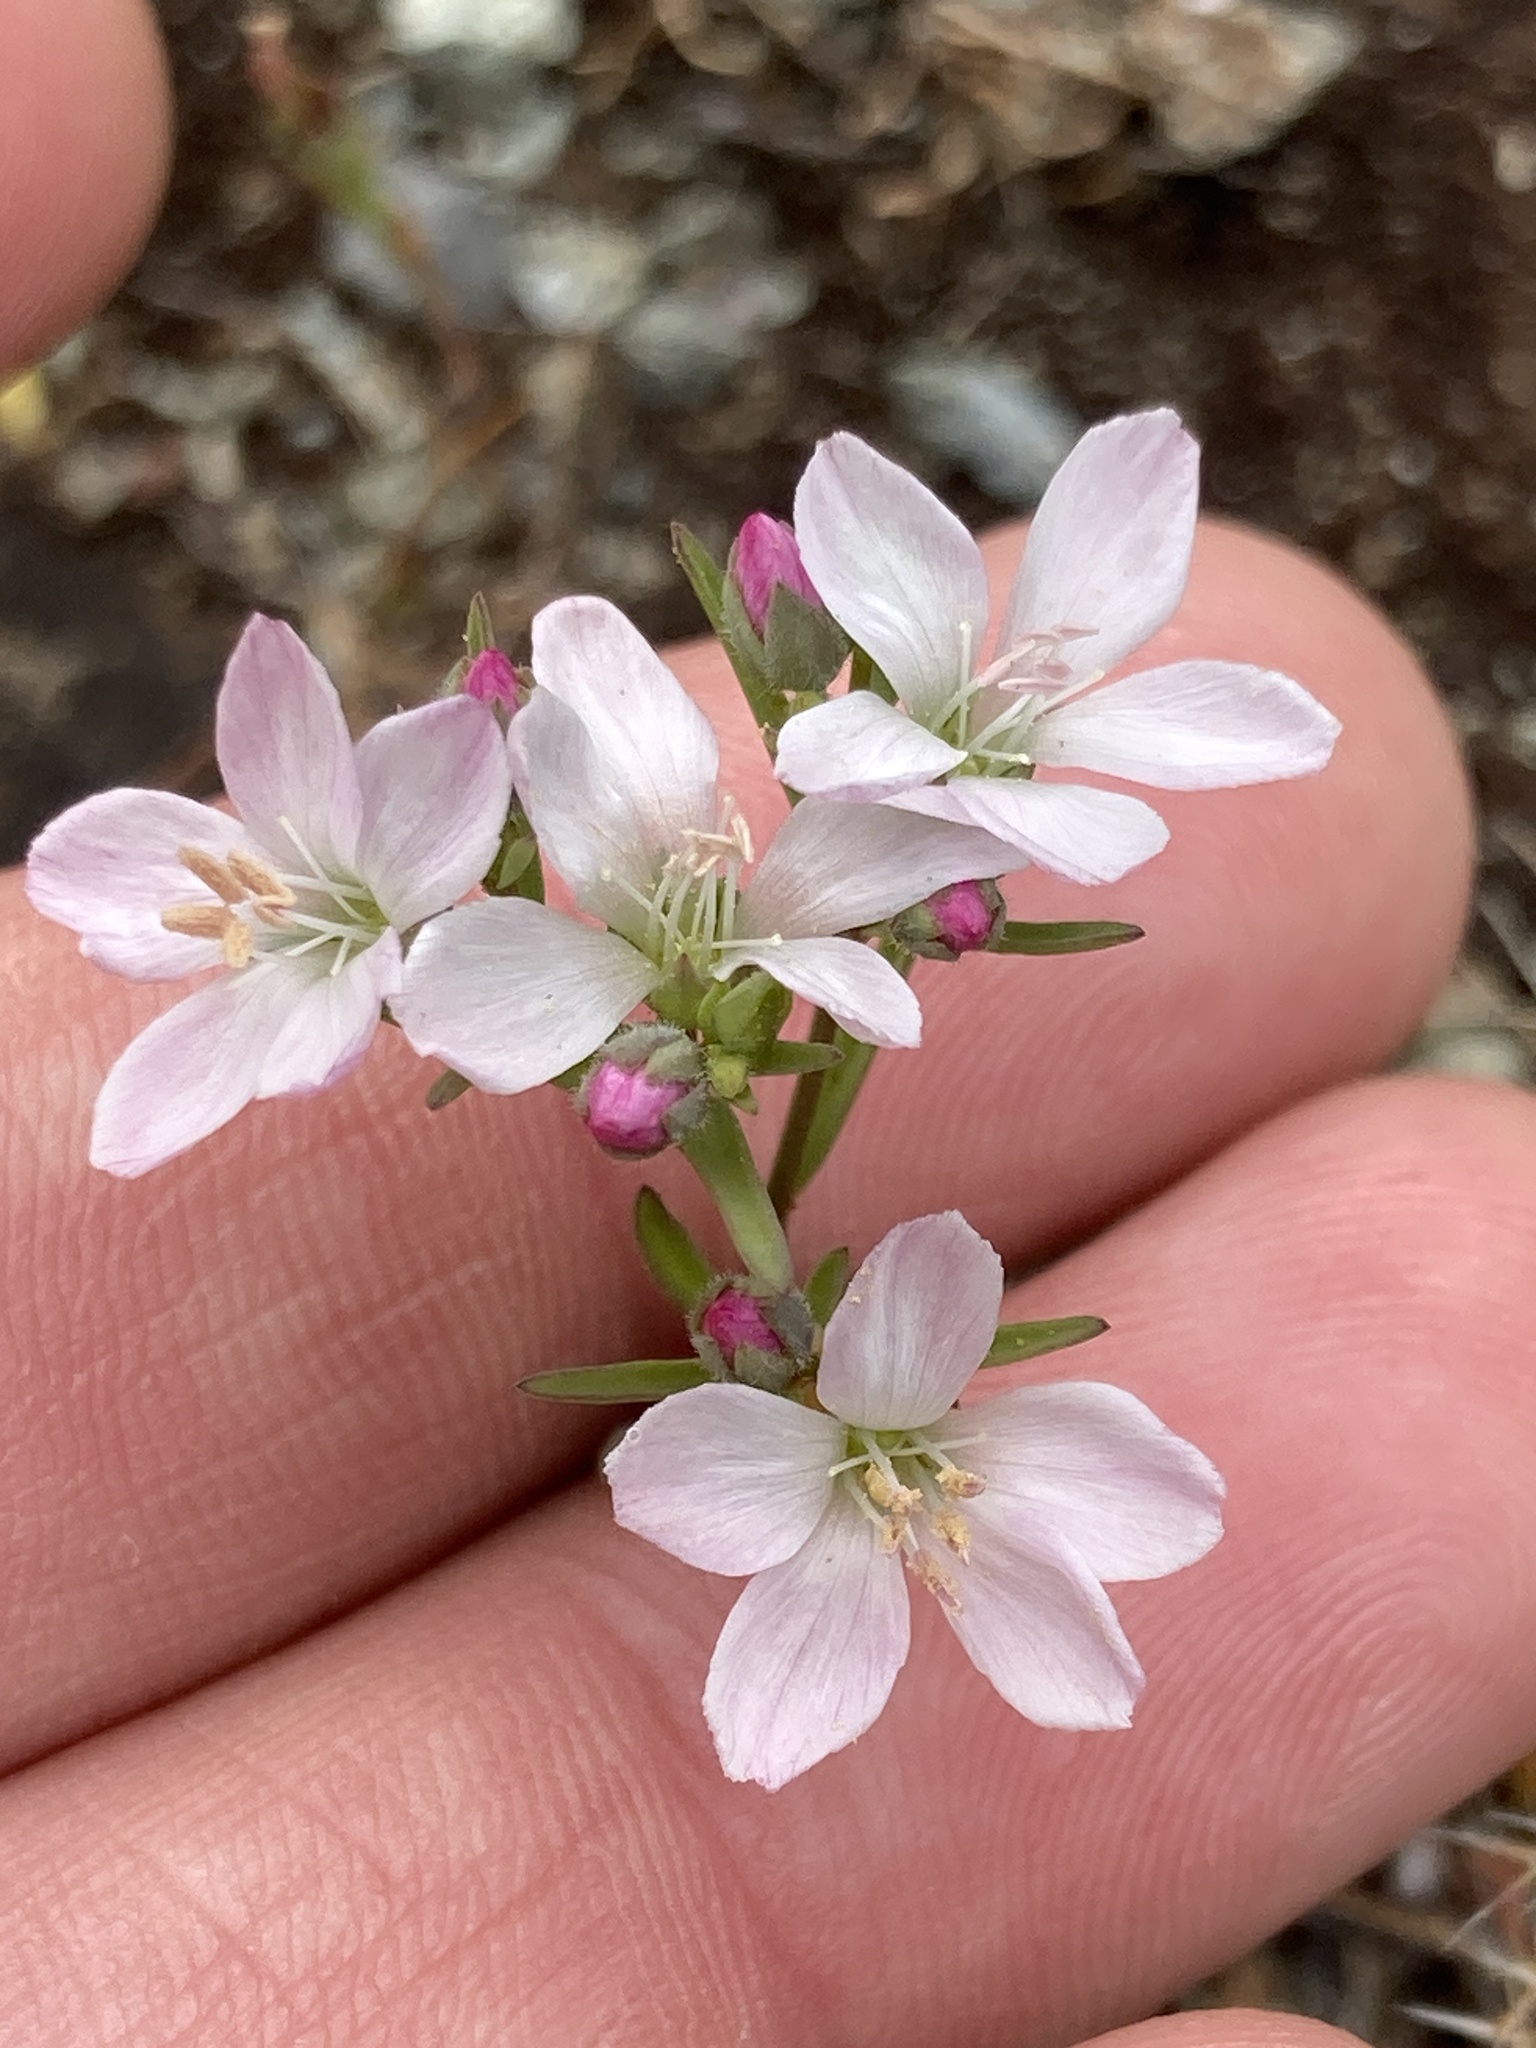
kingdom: Plantae
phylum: Tracheophyta
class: Magnoliopsida
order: Malpighiales
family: Linaceae
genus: Hesperolinon
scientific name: Hesperolinon congestum
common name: Marin dwarf-flax
